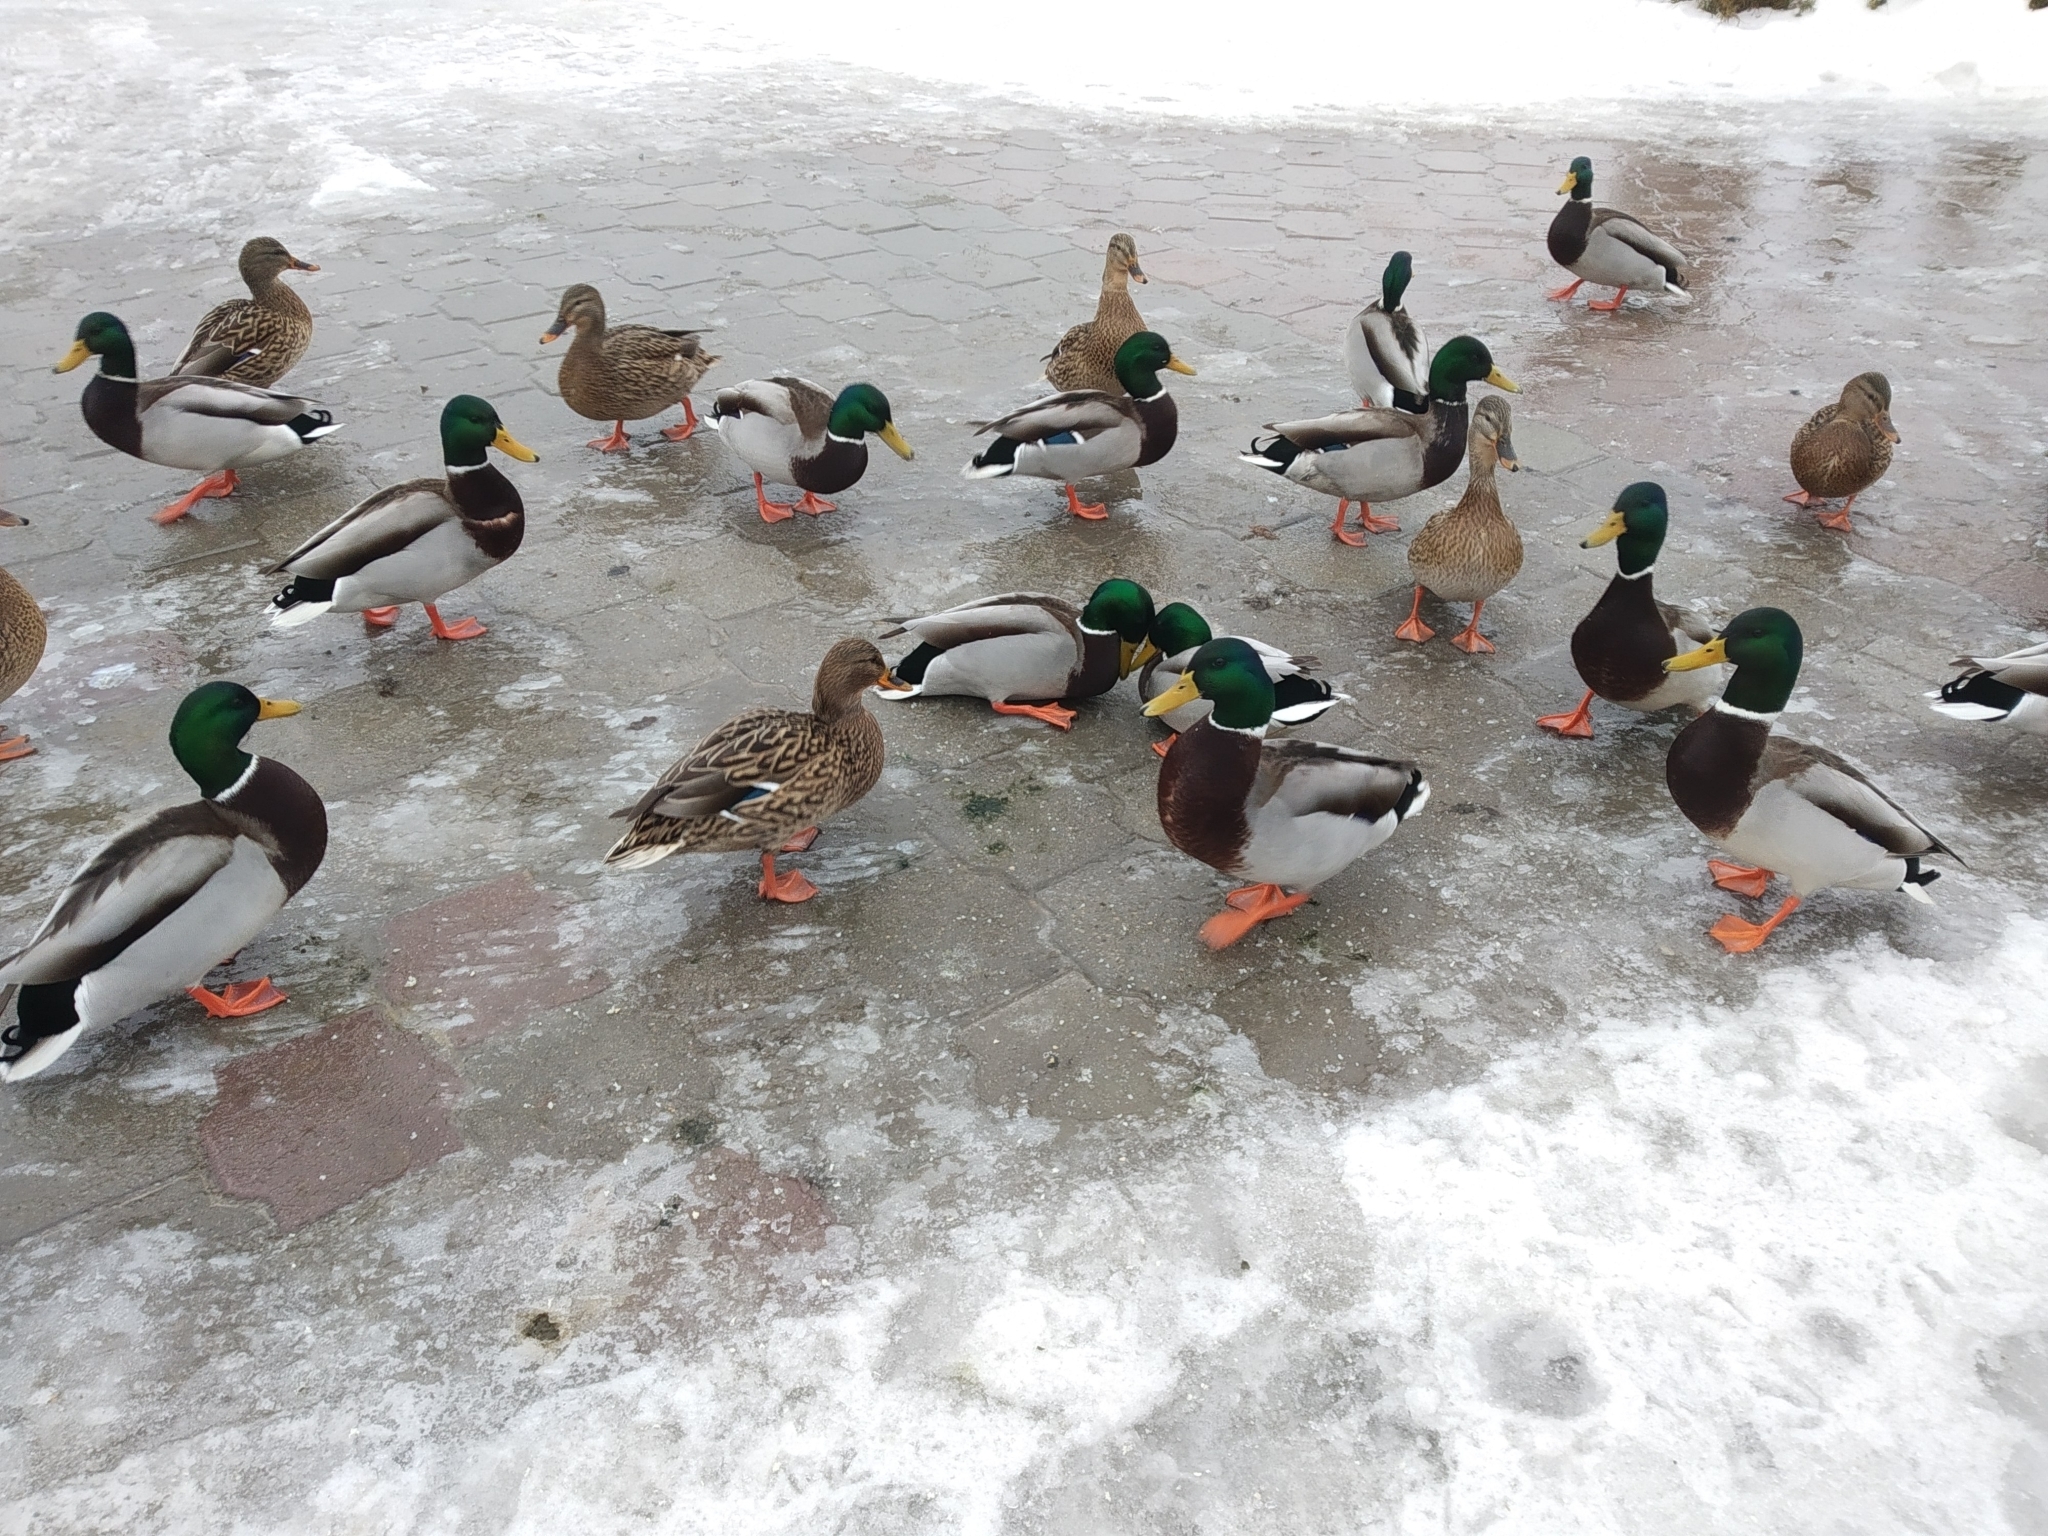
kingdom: Animalia
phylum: Chordata
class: Aves
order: Anseriformes
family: Anatidae
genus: Anas
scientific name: Anas platyrhynchos
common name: Mallard
